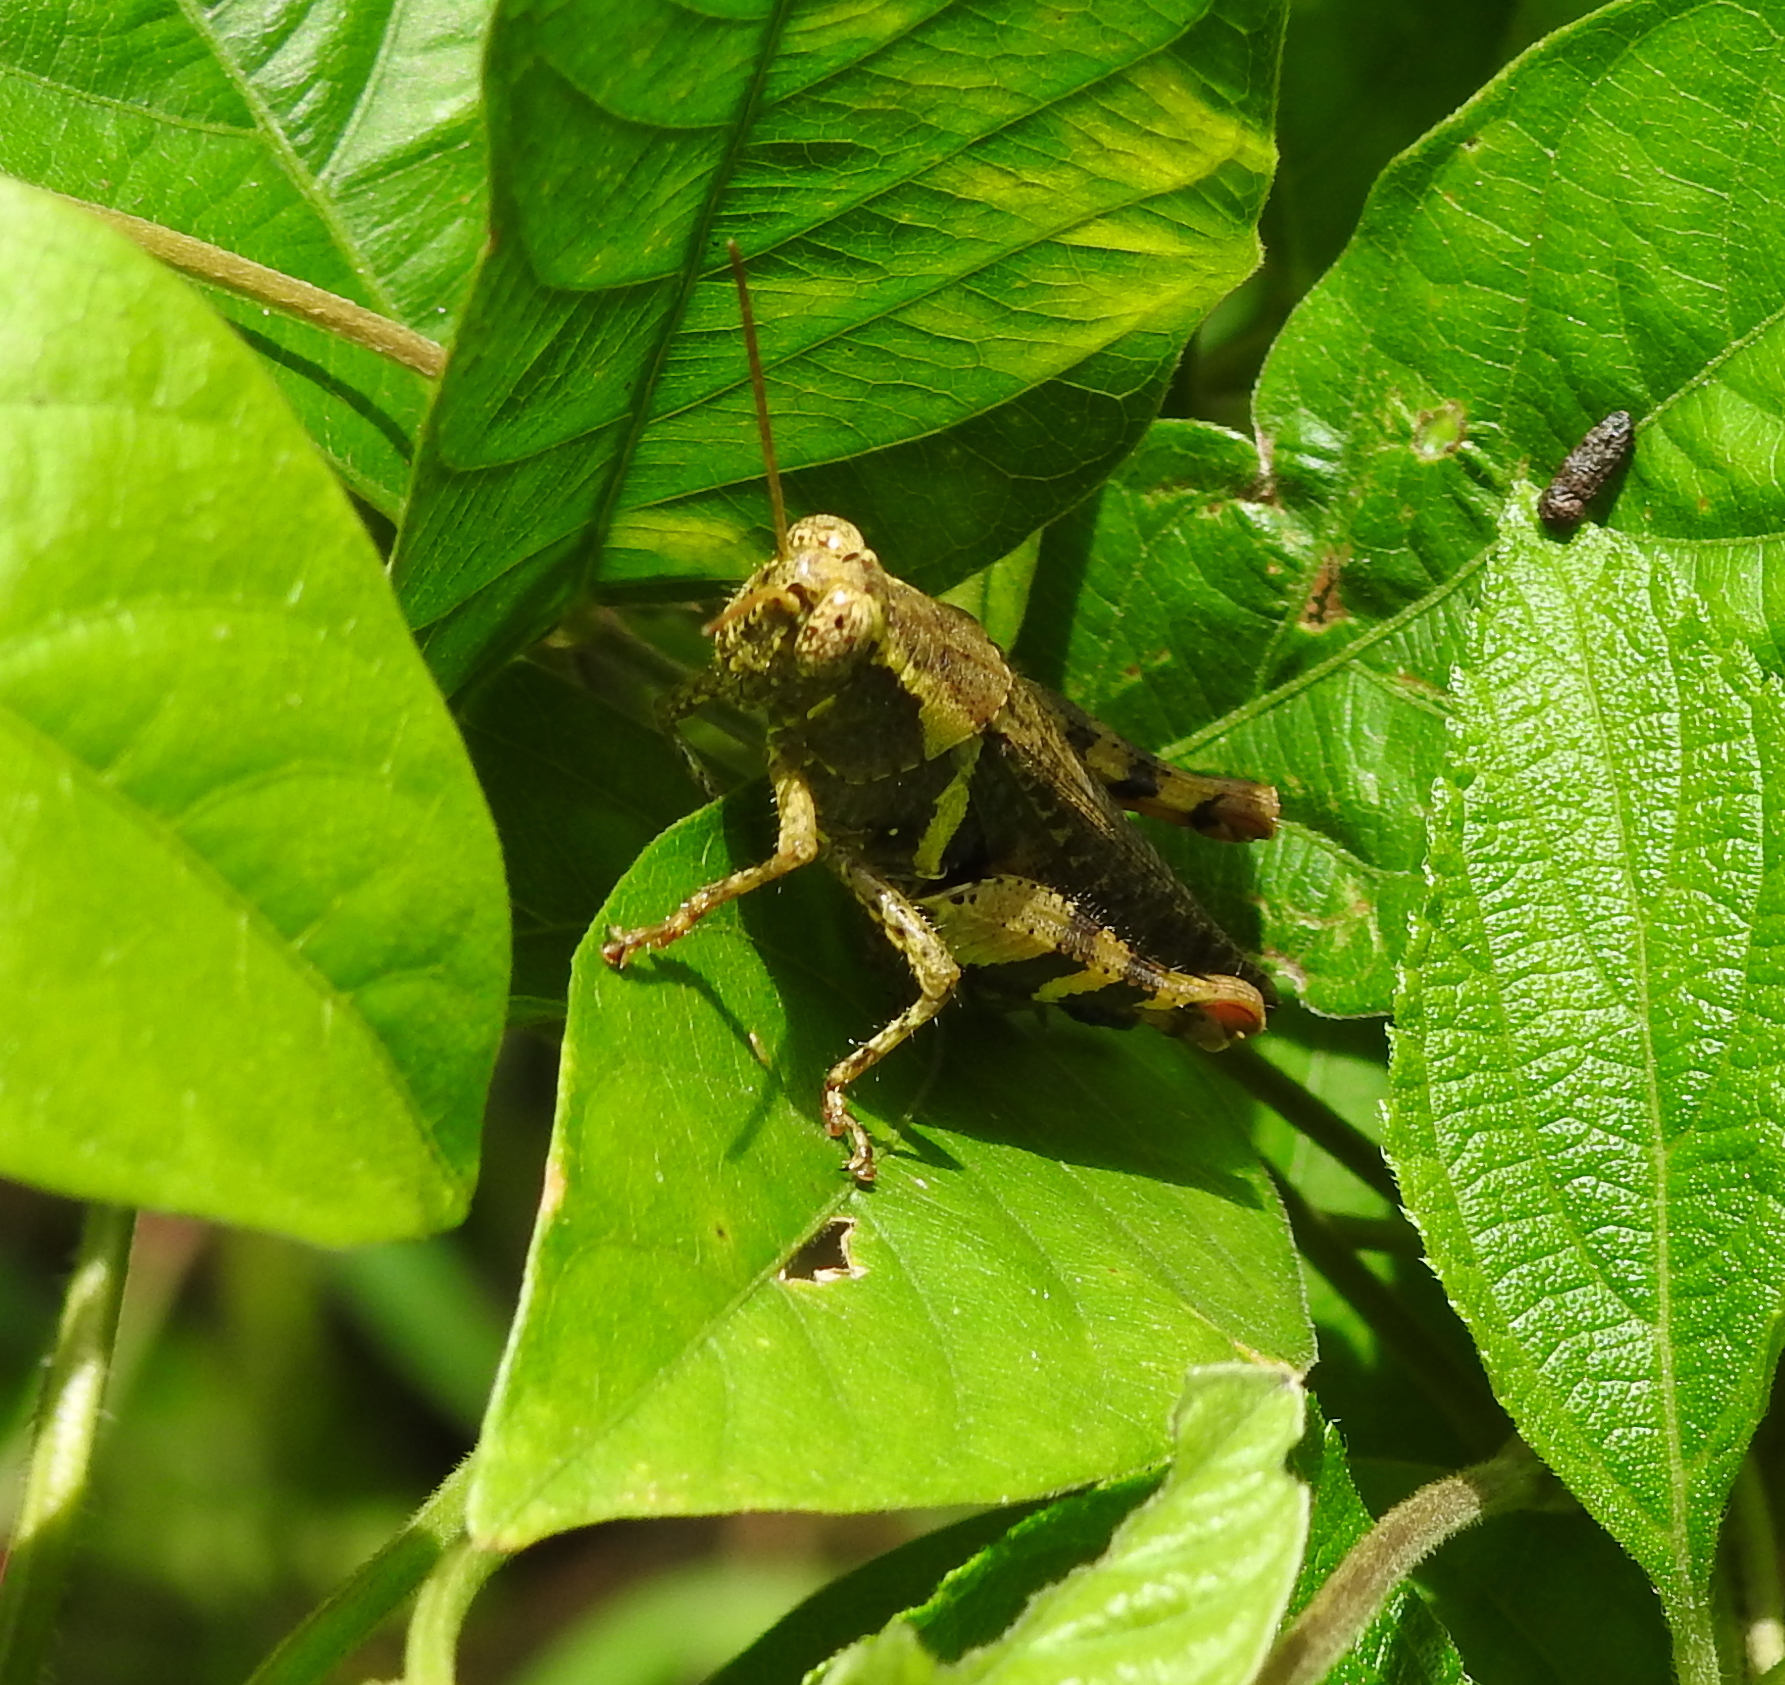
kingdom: Animalia
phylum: Arthropoda
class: Insecta
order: Orthoptera
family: Acrididae
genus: Xenocatantops
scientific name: Xenocatantops humile
